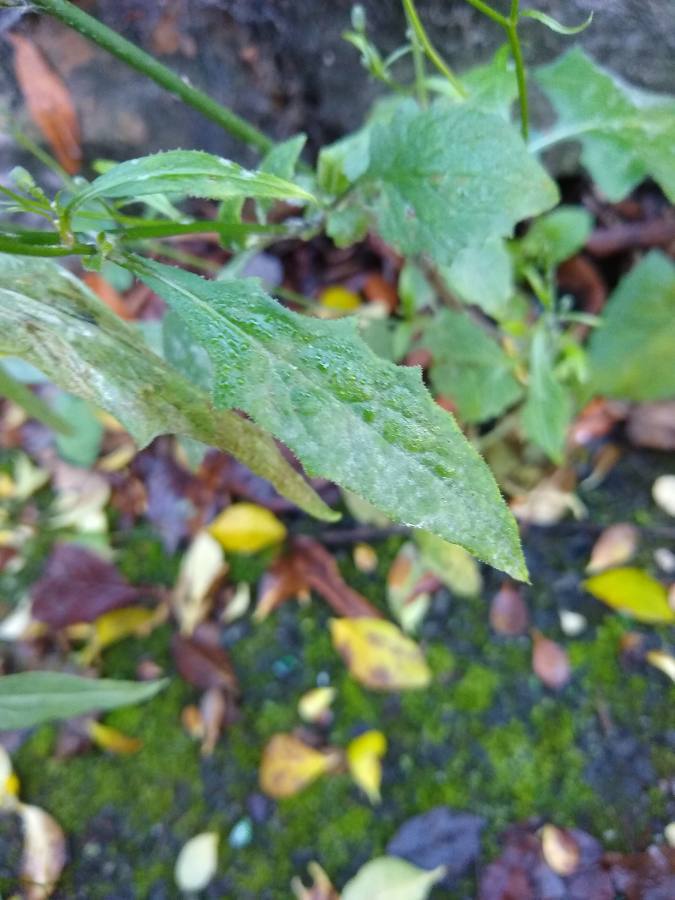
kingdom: Plantae
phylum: Tracheophyta
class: Magnoliopsida
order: Asterales
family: Asteraceae
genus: Lapsana
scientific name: Lapsana communis
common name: Nipplewort
